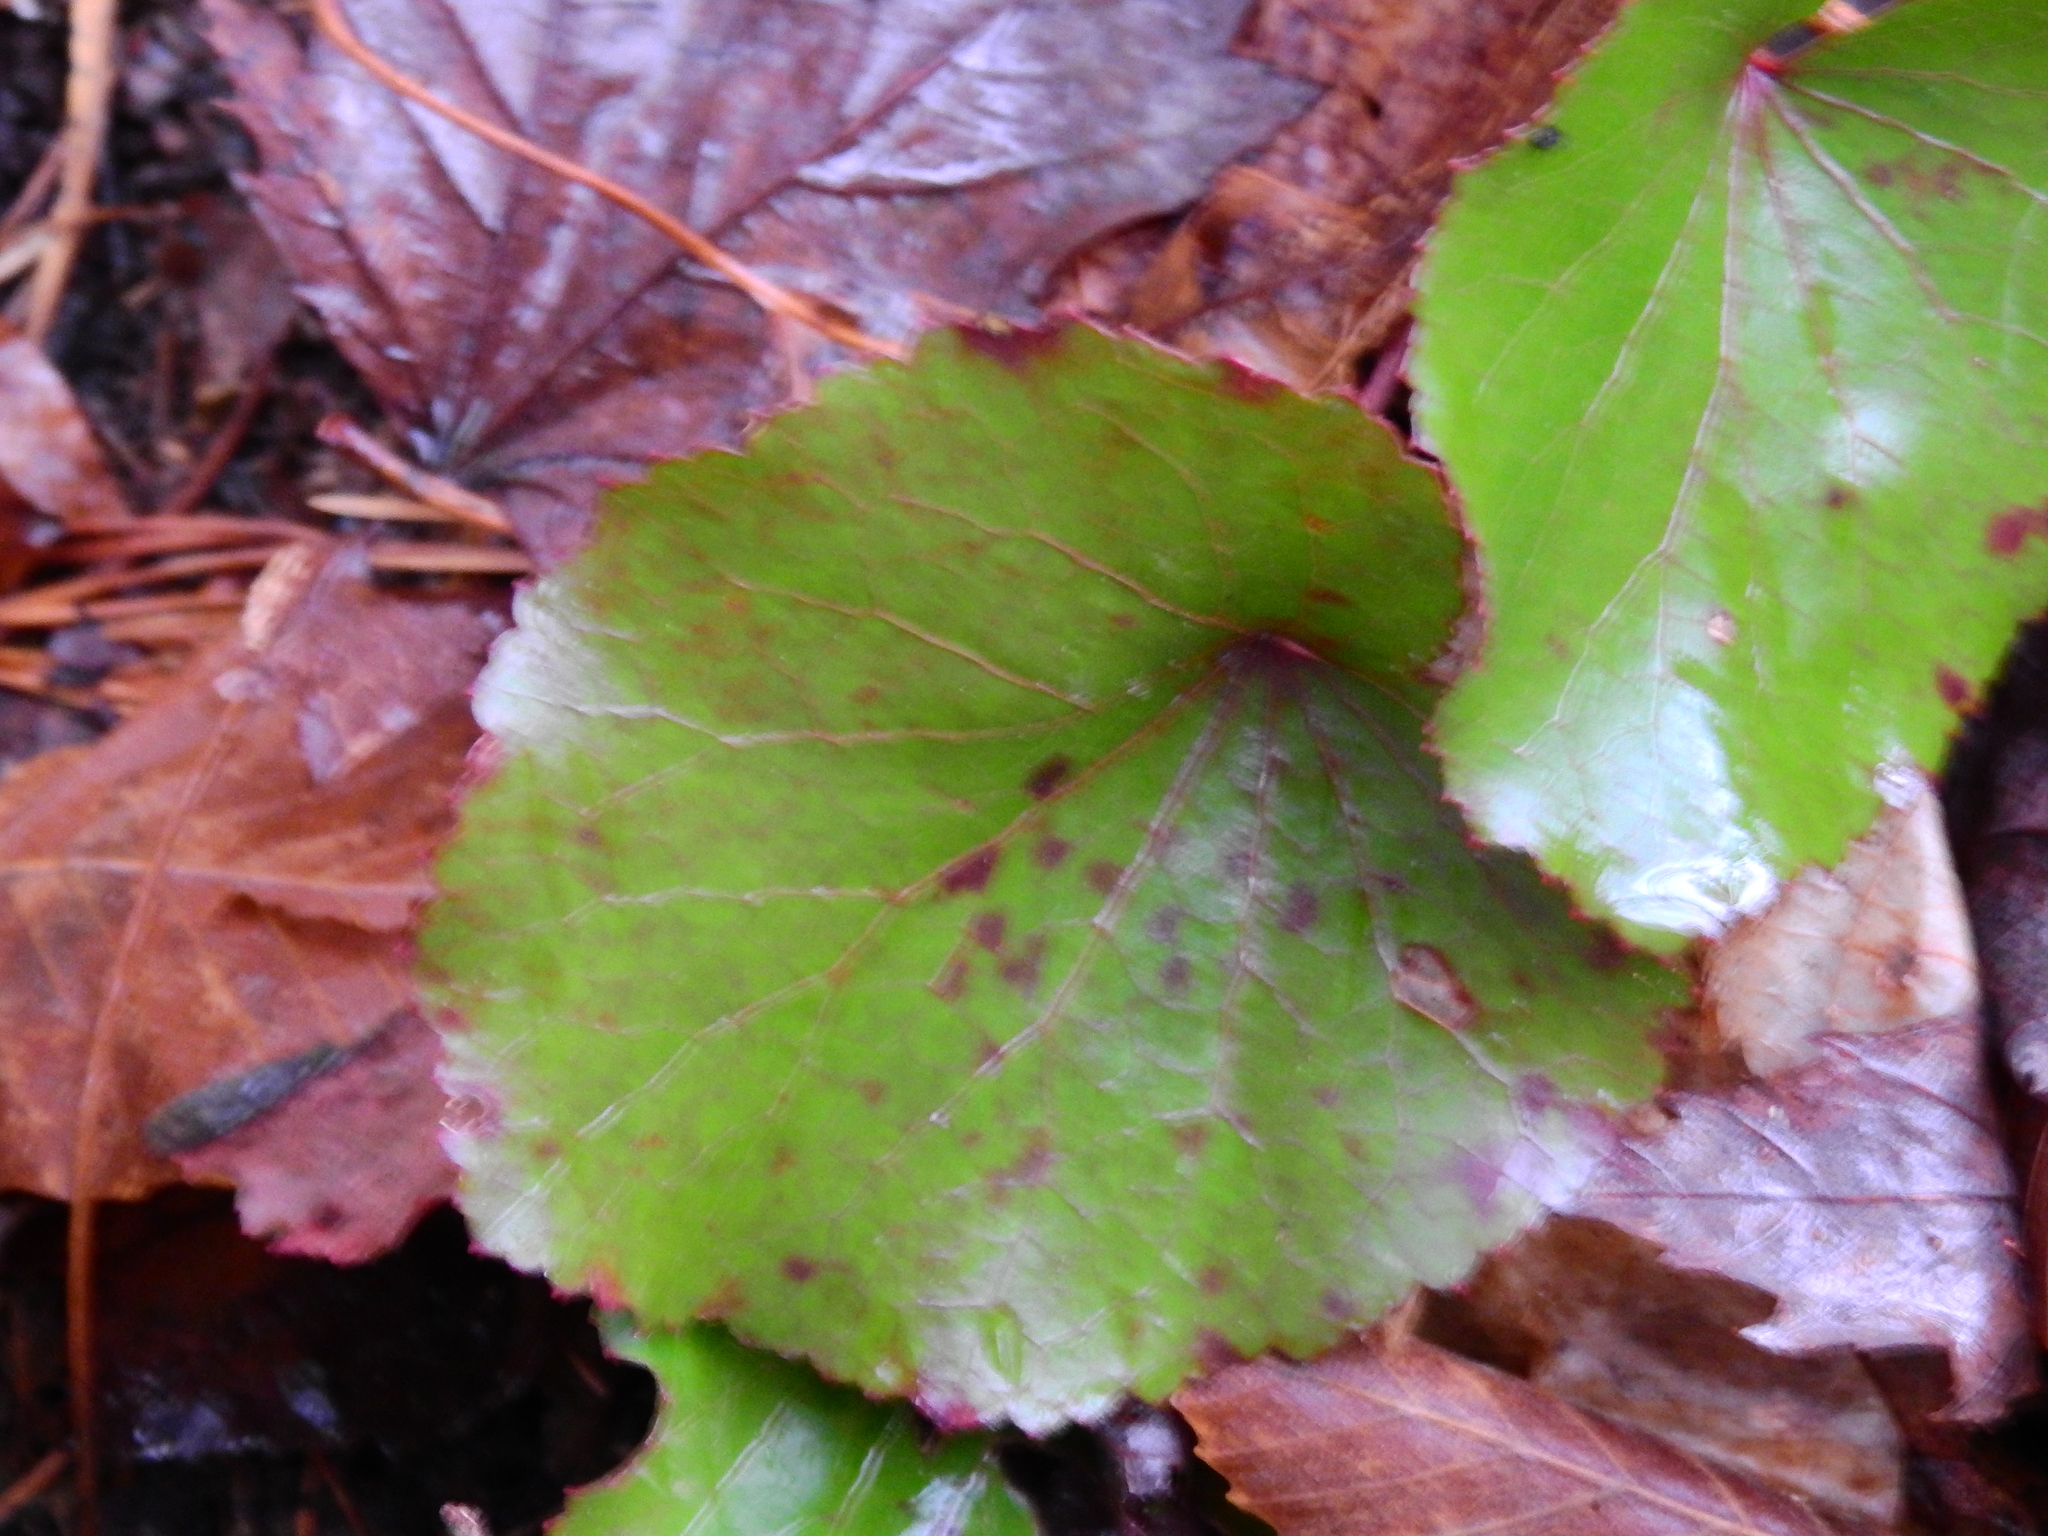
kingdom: Plantae
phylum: Tracheophyta
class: Magnoliopsida
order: Ericales
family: Diapensiaceae
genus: Galax
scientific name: Galax urceolata
